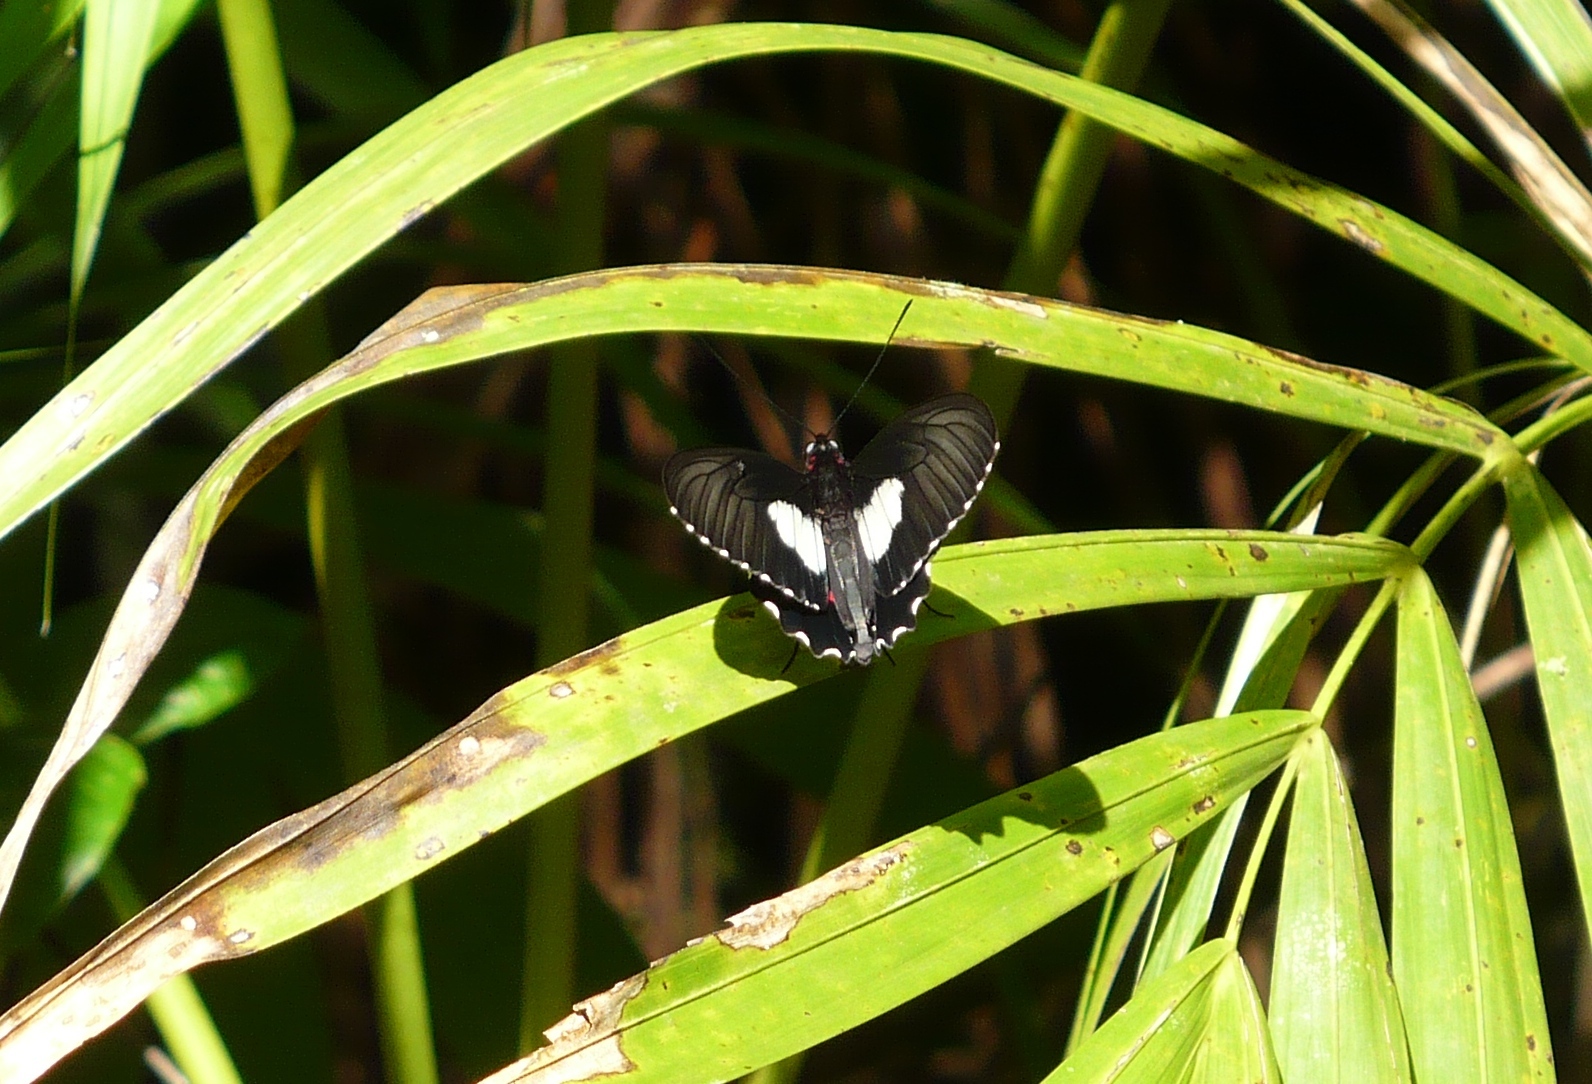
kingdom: Animalia
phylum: Arthropoda
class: Insecta
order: Lepidoptera
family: Papilionidae
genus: Parides
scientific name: Parides anchises
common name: Cattle heart
